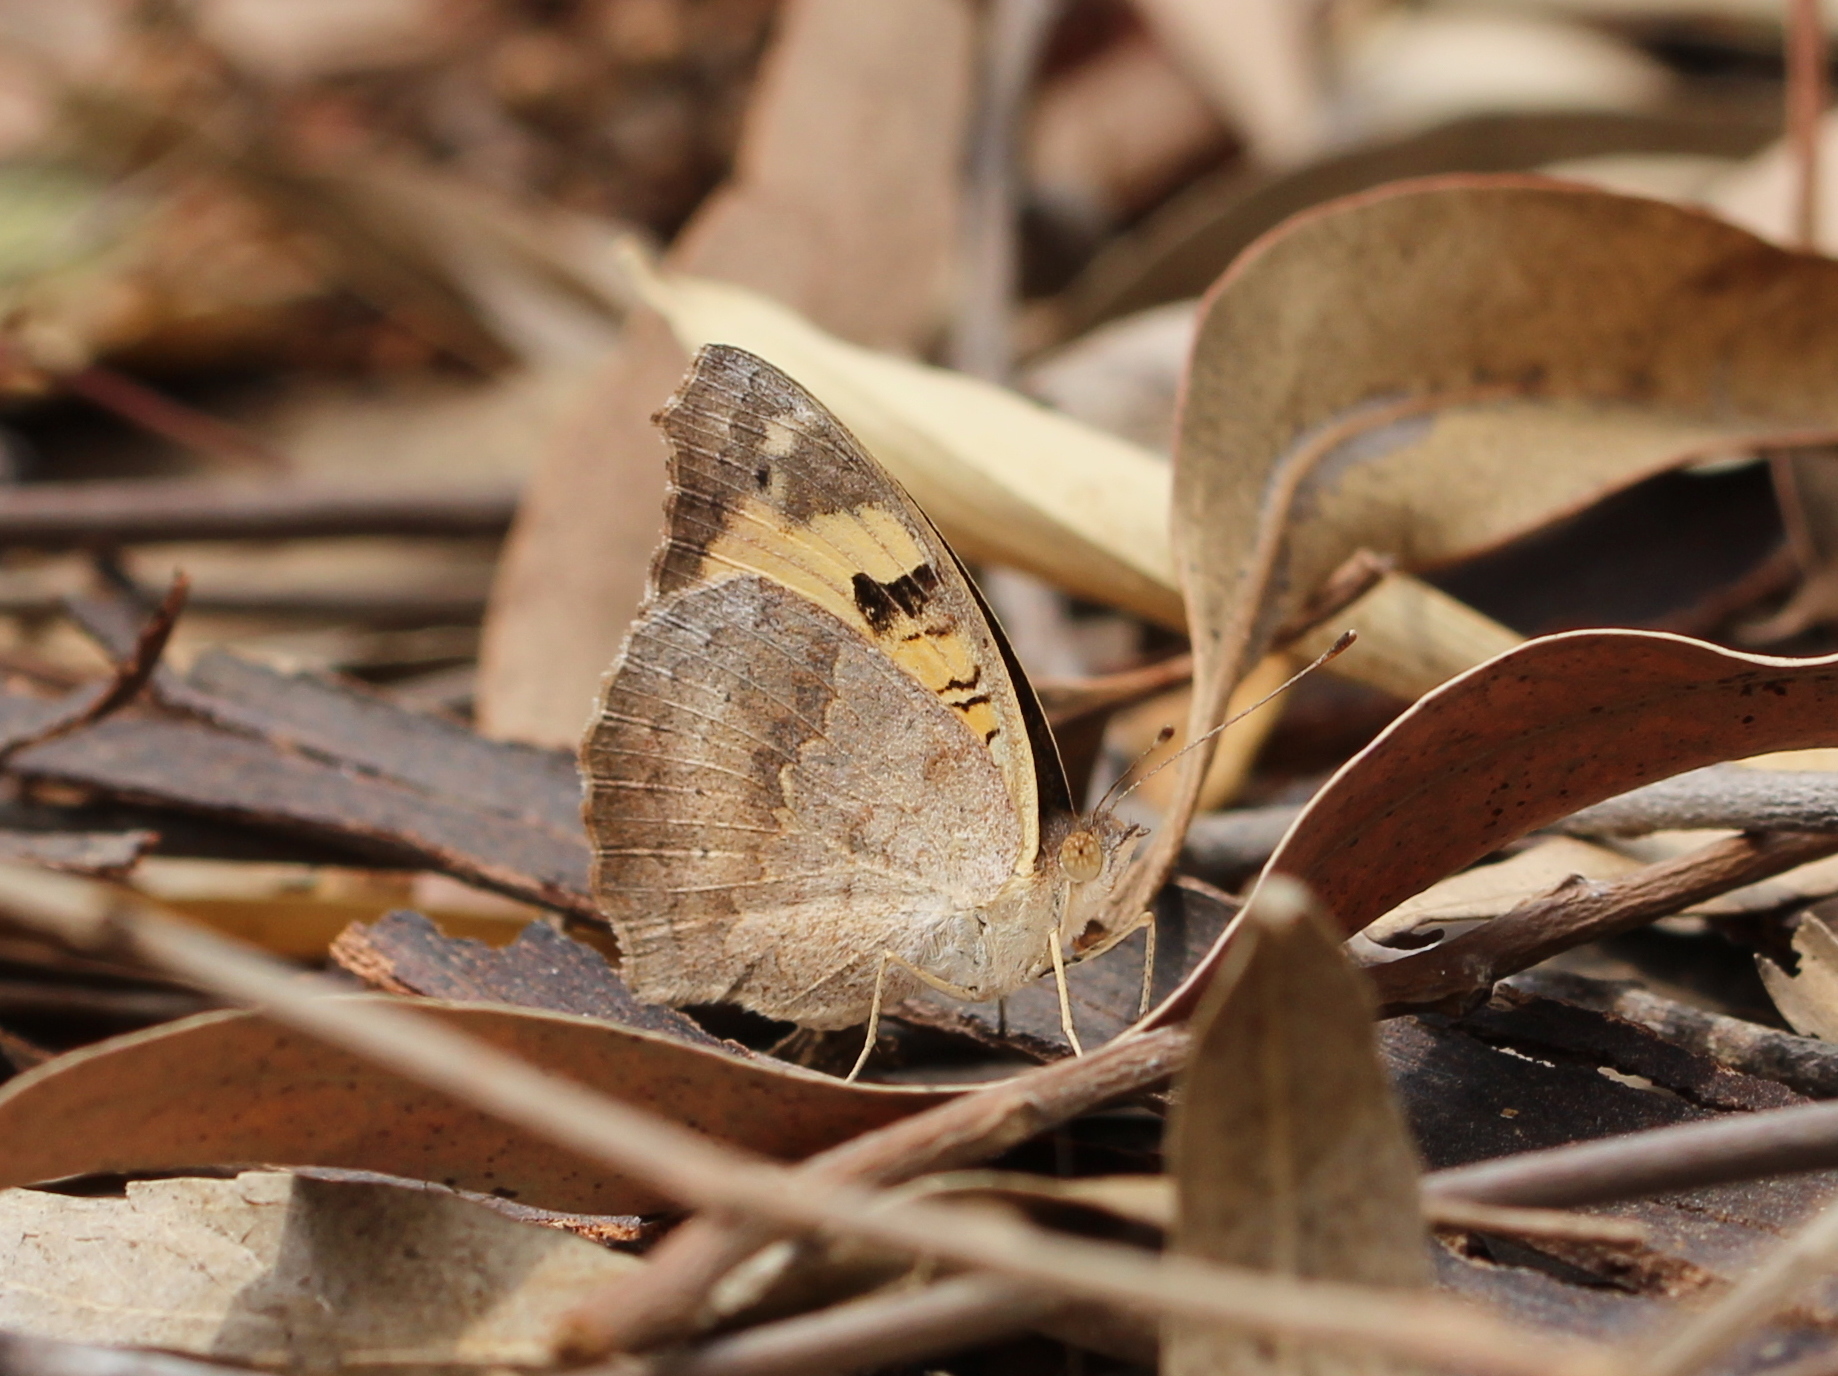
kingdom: Animalia
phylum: Arthropoda
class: Insecta
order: Lepidoptera
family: Nymphalidae
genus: Junonia
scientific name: Junonia hierta
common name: Yellow pansy
